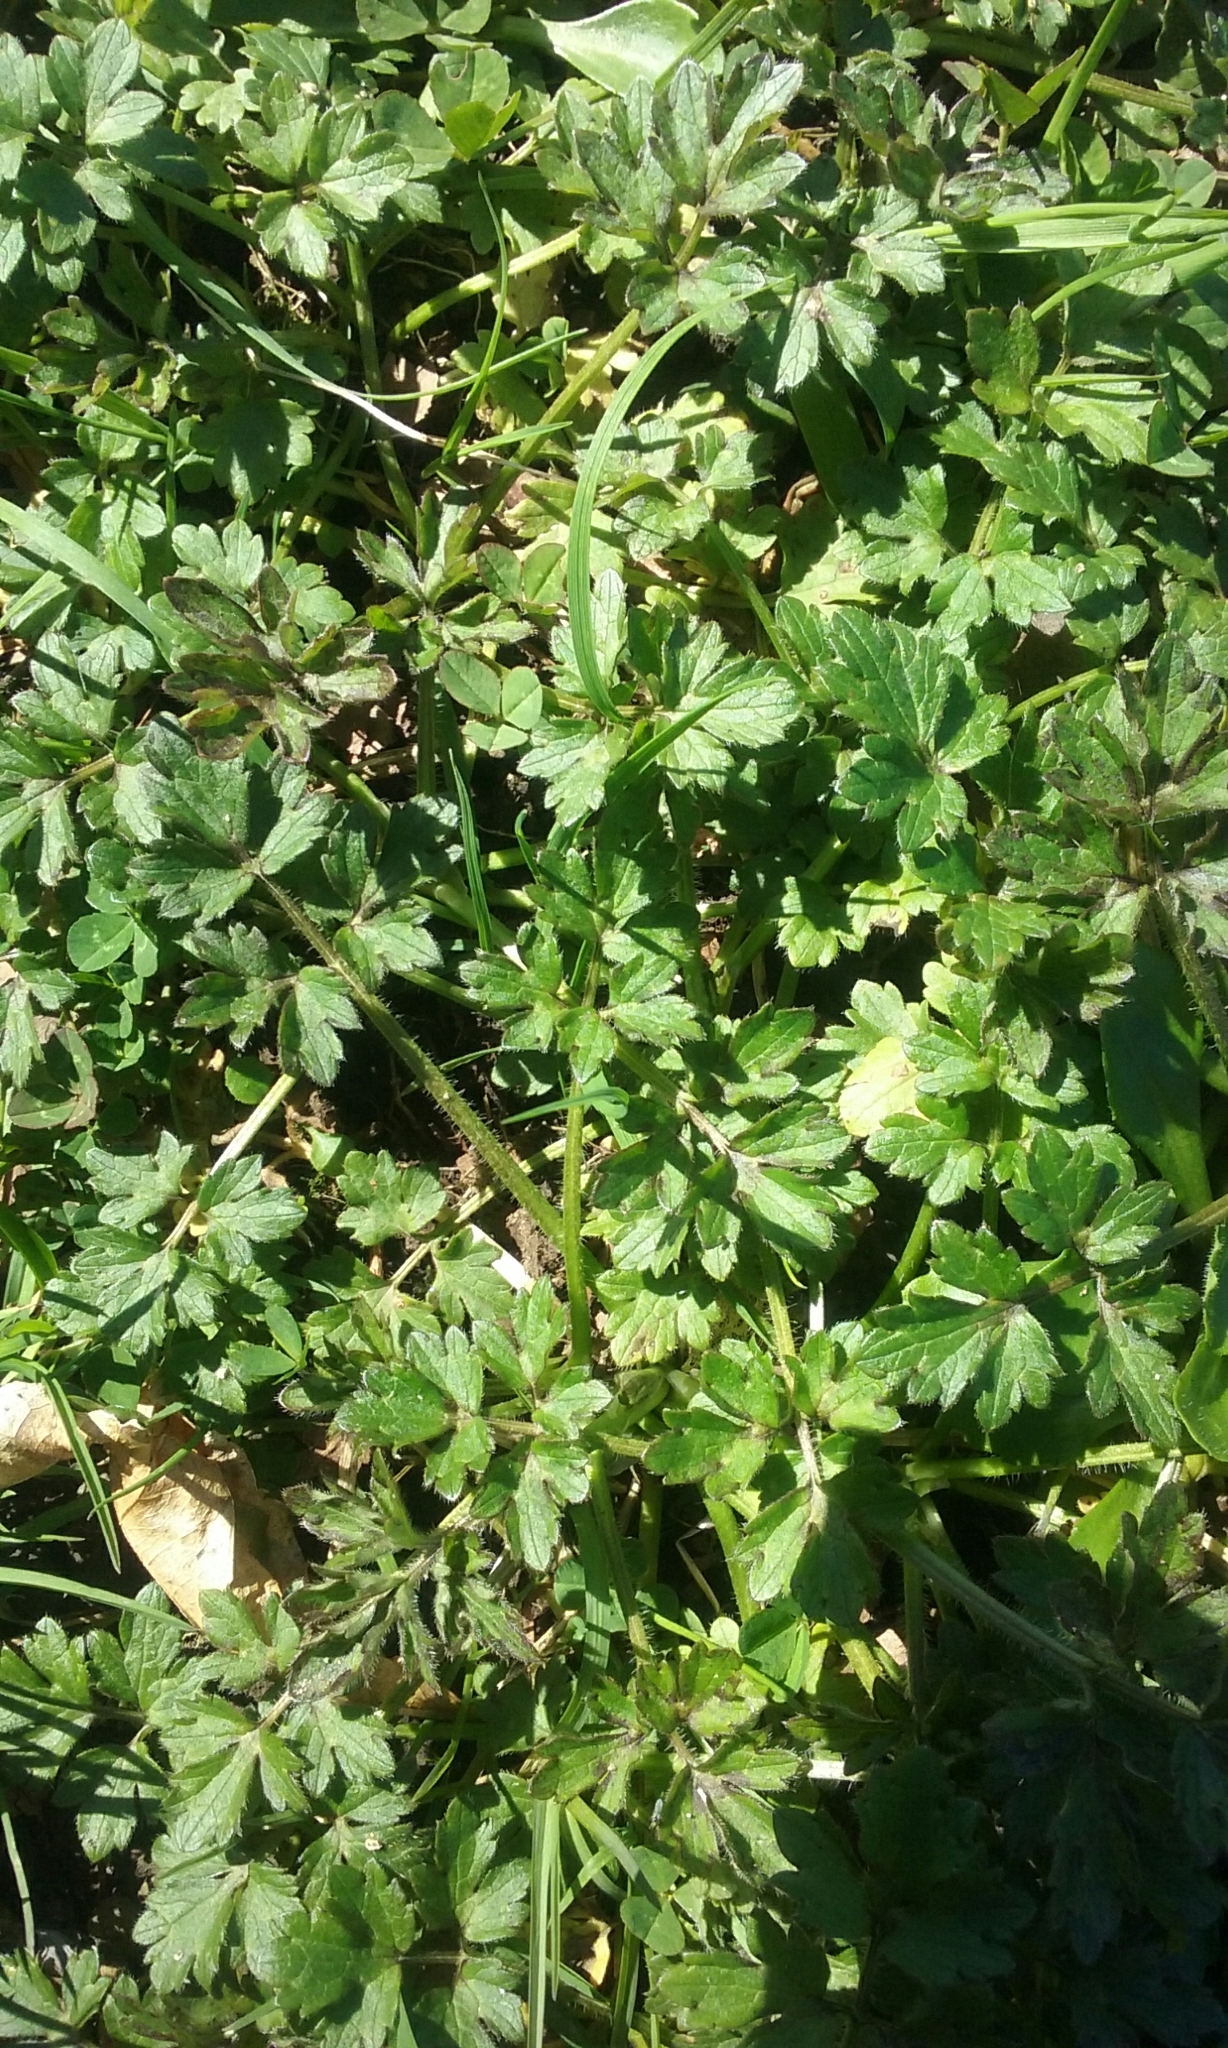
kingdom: Plantae
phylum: Tracheophyta
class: Magnoliopsida
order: Ranunculales
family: Ranunculaceae
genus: Ranunculus
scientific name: Ranunculus repens
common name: Creeping buttercup
